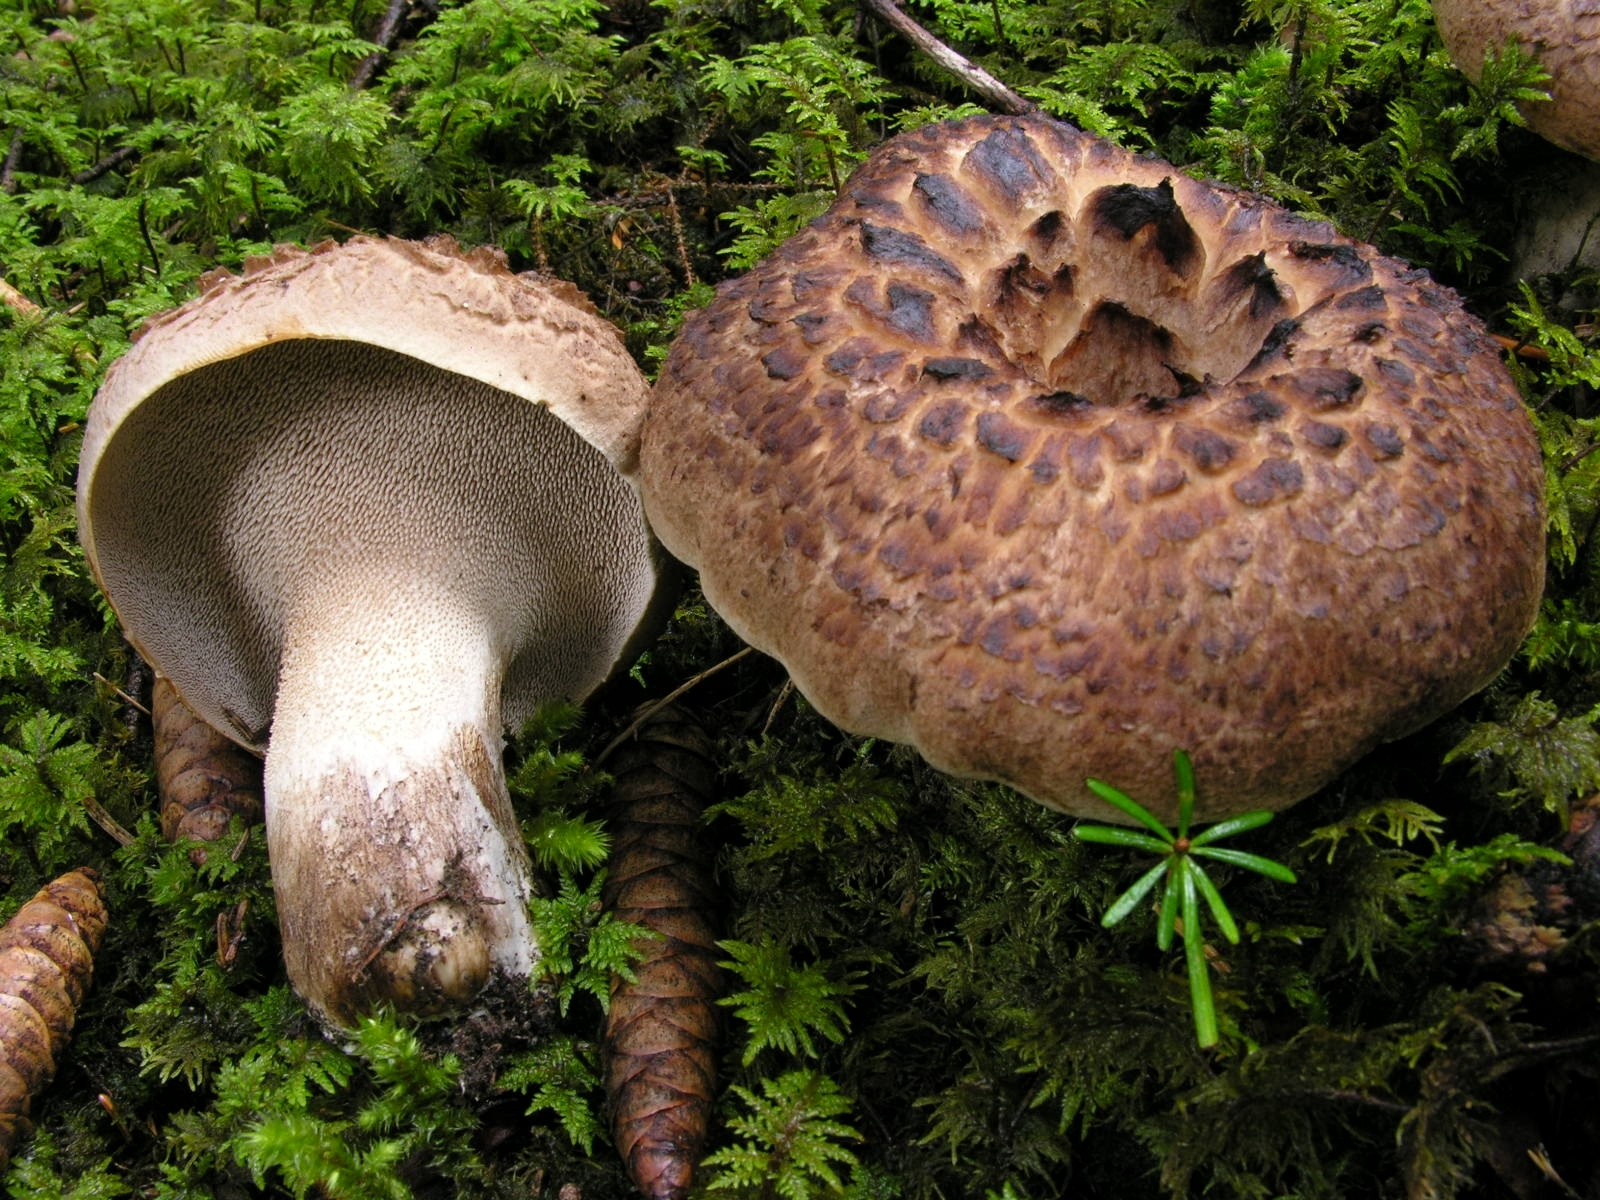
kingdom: Fungi
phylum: Basidiomycota
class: Agaricomycetes
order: Thelephorales
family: Bankeraceae
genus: Sarcodon
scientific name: Sarcodon imbricatus
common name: Shingled hedgehog
